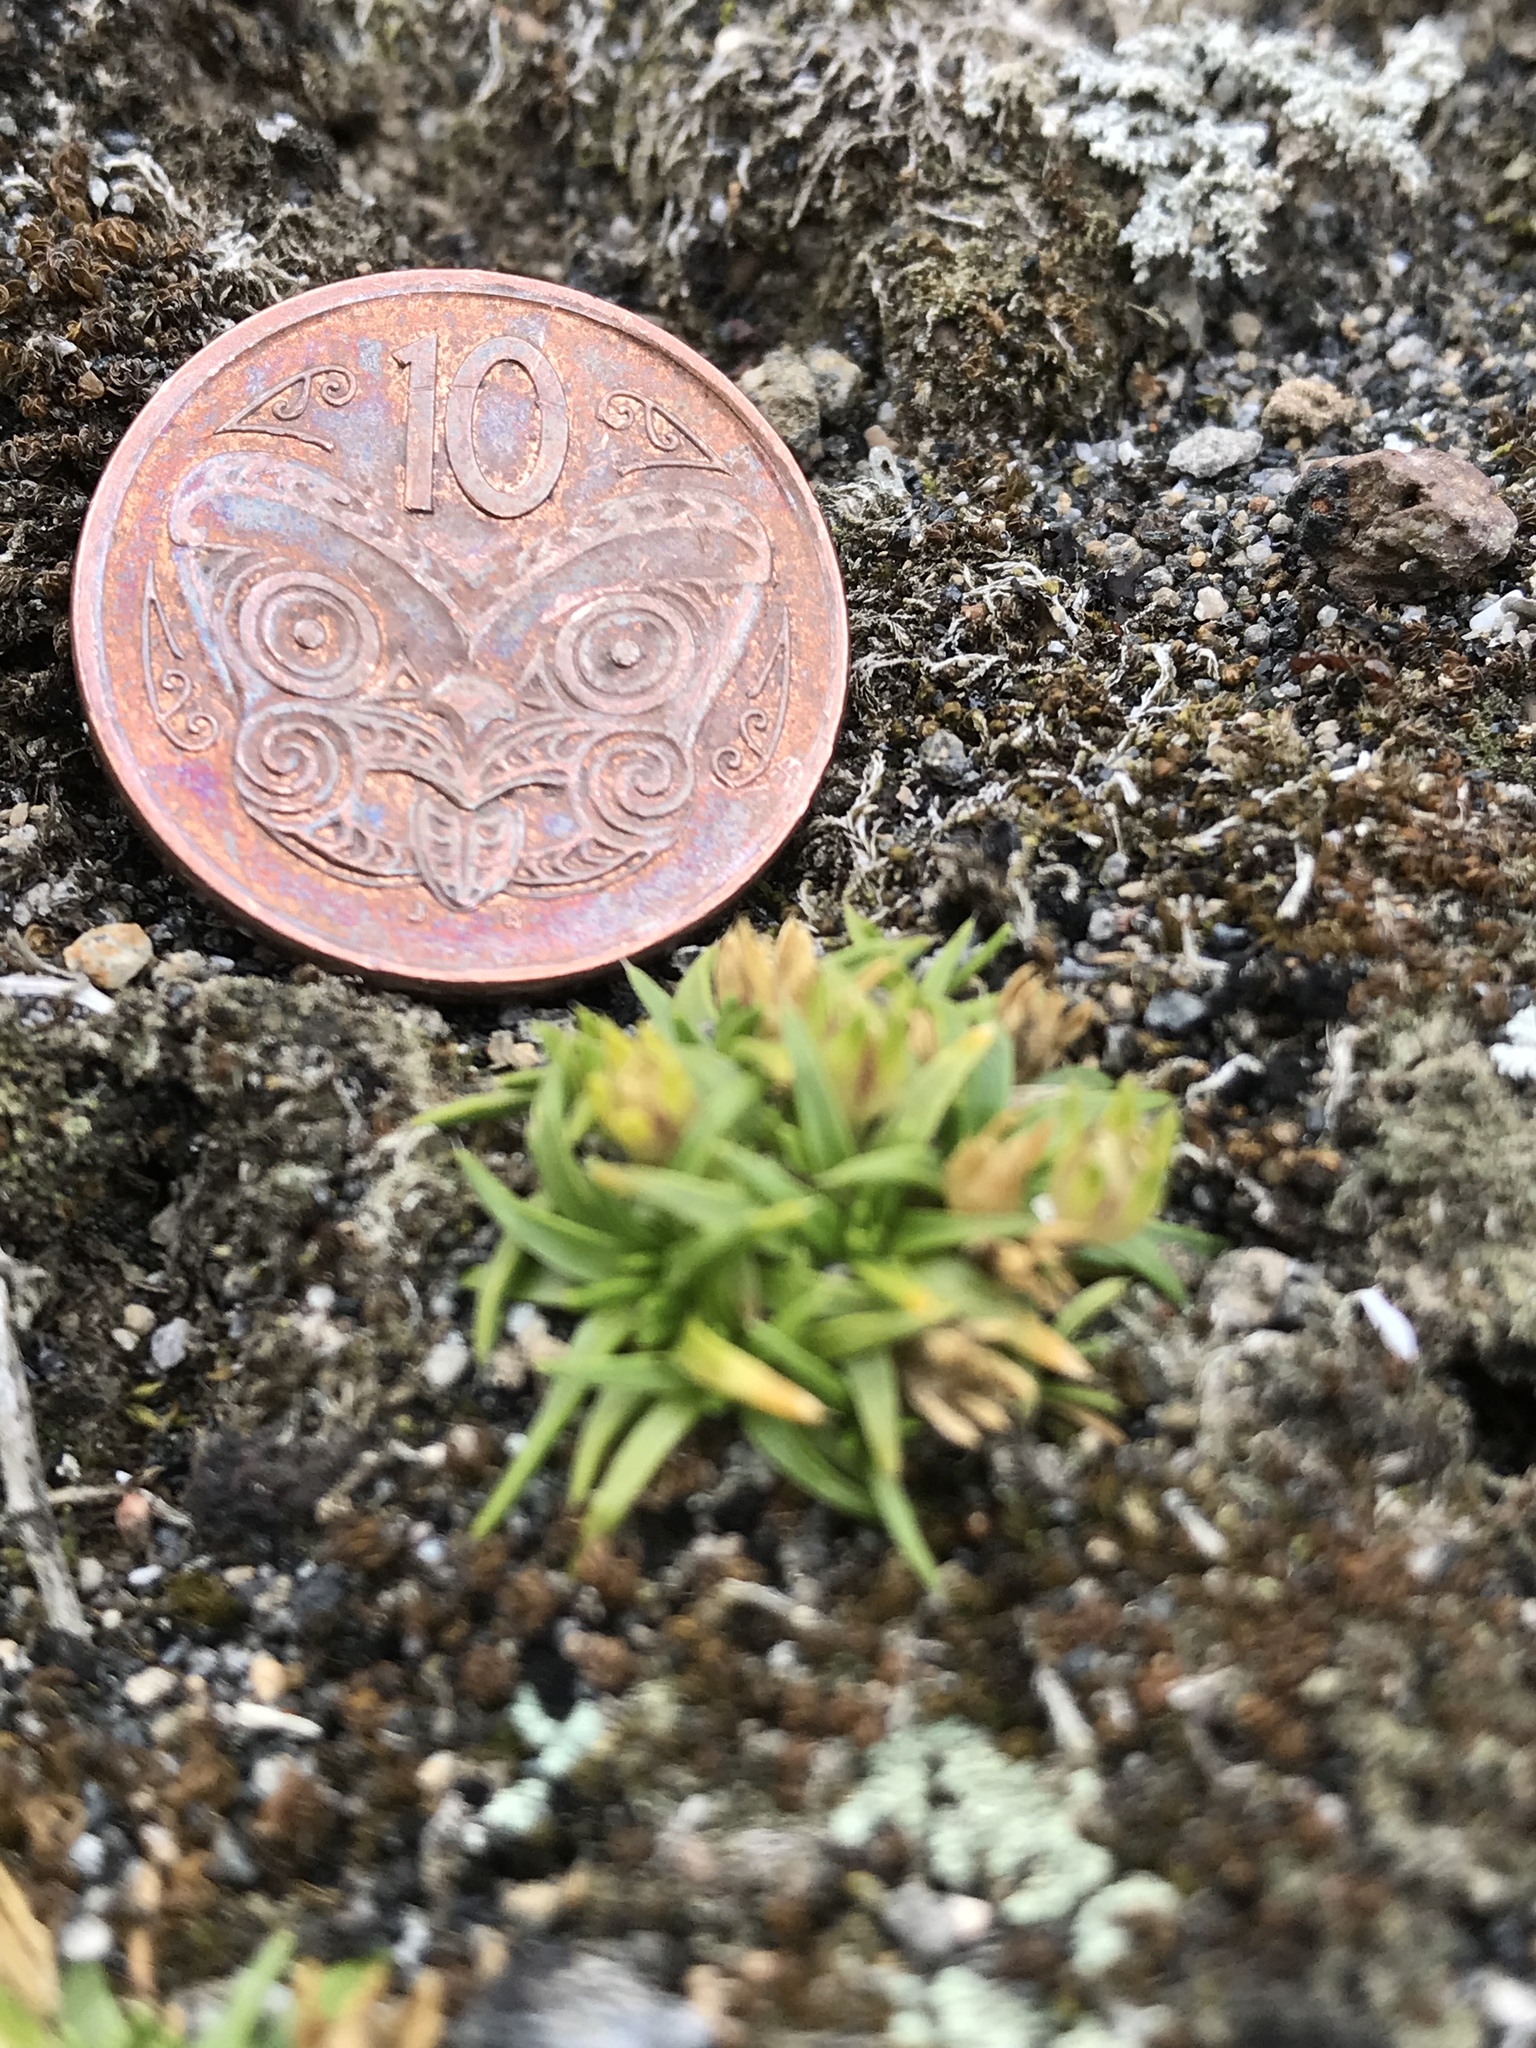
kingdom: Plantae
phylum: Tracheophyta
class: Magnoliopsida
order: Caryophyllales
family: Caryophyllaceae
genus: Colobanthus
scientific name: Colobanthus muelleri
